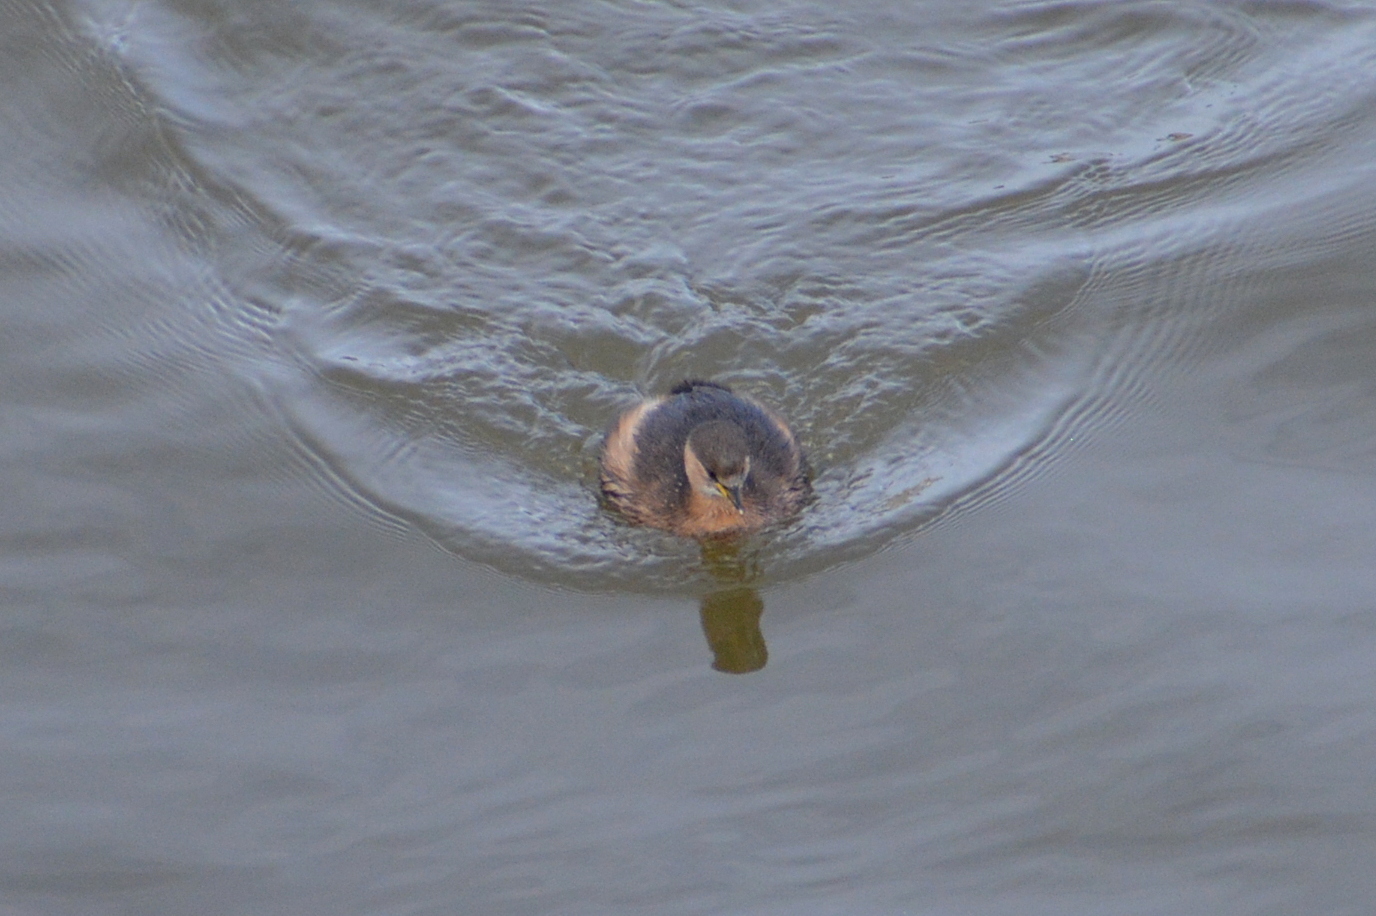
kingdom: Animalia
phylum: Chordata
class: Aves
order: Podicipediformes
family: Podicipedidae
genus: Tachybaptus
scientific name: Tachybaptus ruficollis
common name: Little grebe
